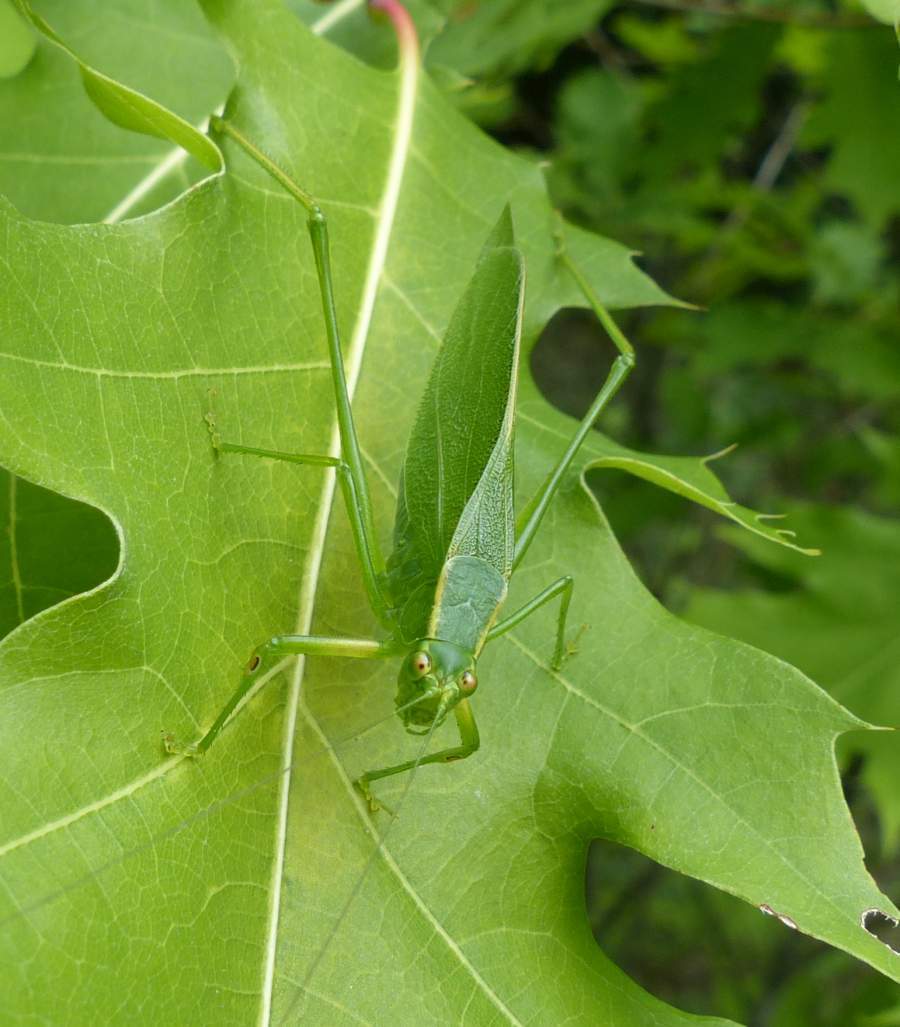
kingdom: Animalia
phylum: Arthropoda
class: Insecta
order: Orthoptera
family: Tettigoniidae
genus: Scudderia
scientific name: Scudderia septentrionalis
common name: Northern bush-katydid
